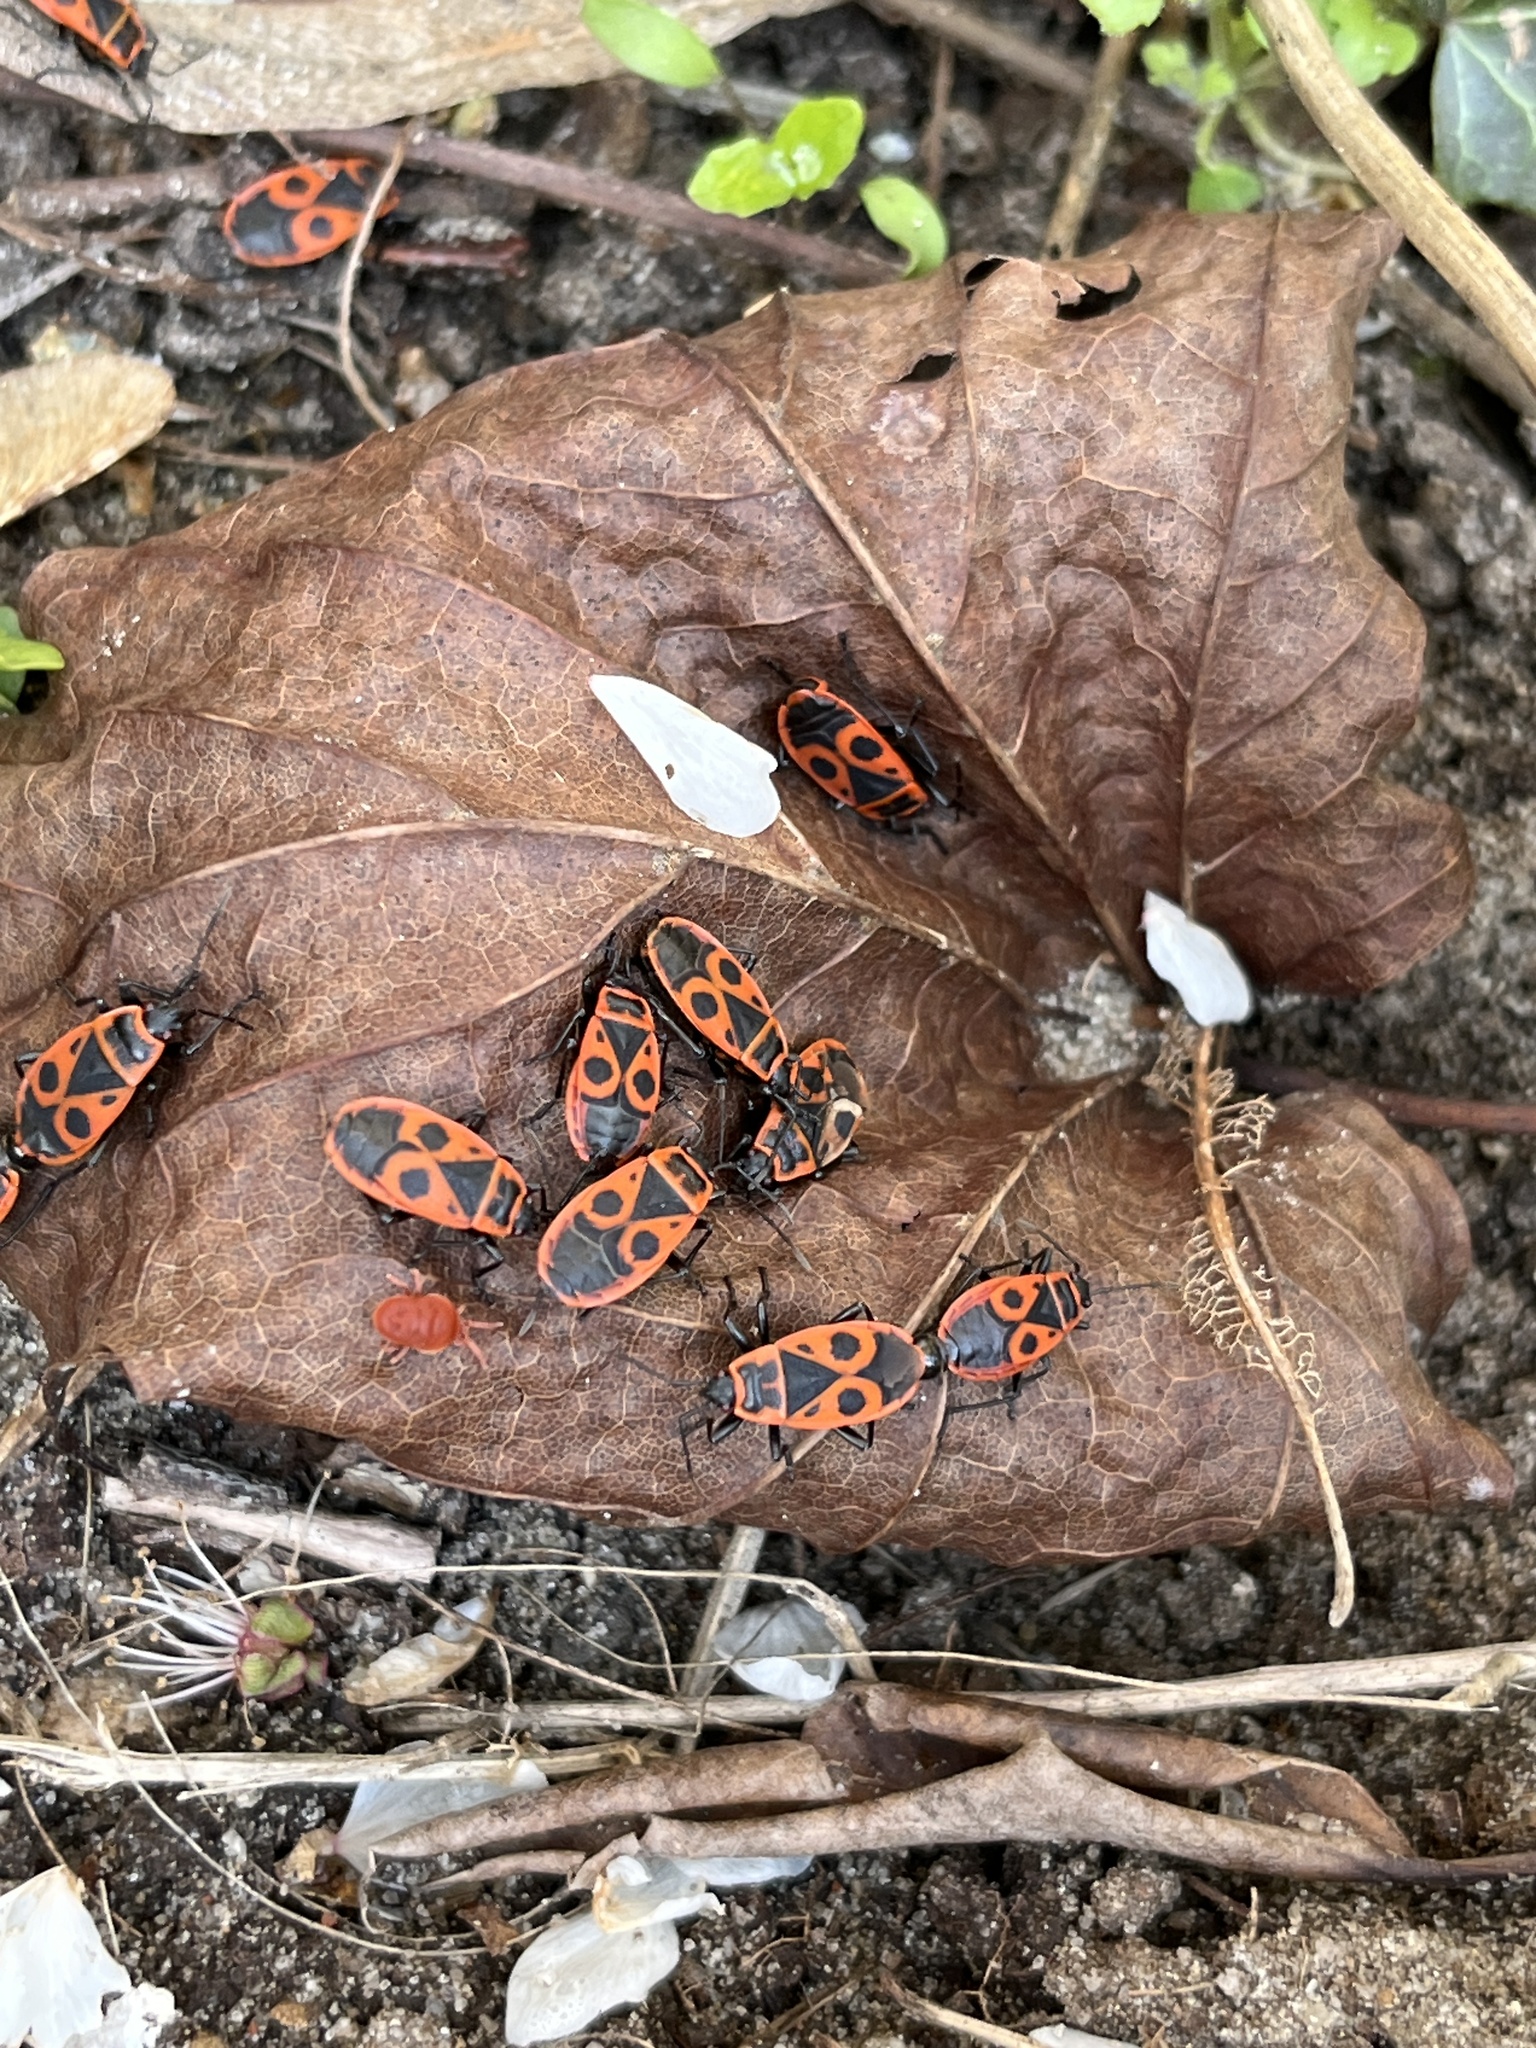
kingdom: Animalia
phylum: Arthropoda
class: Insecta
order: Hemiptera
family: Pyrrhocoridae
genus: Pyrrhocoris
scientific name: Pyrrhocoris apterus
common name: Firebug
